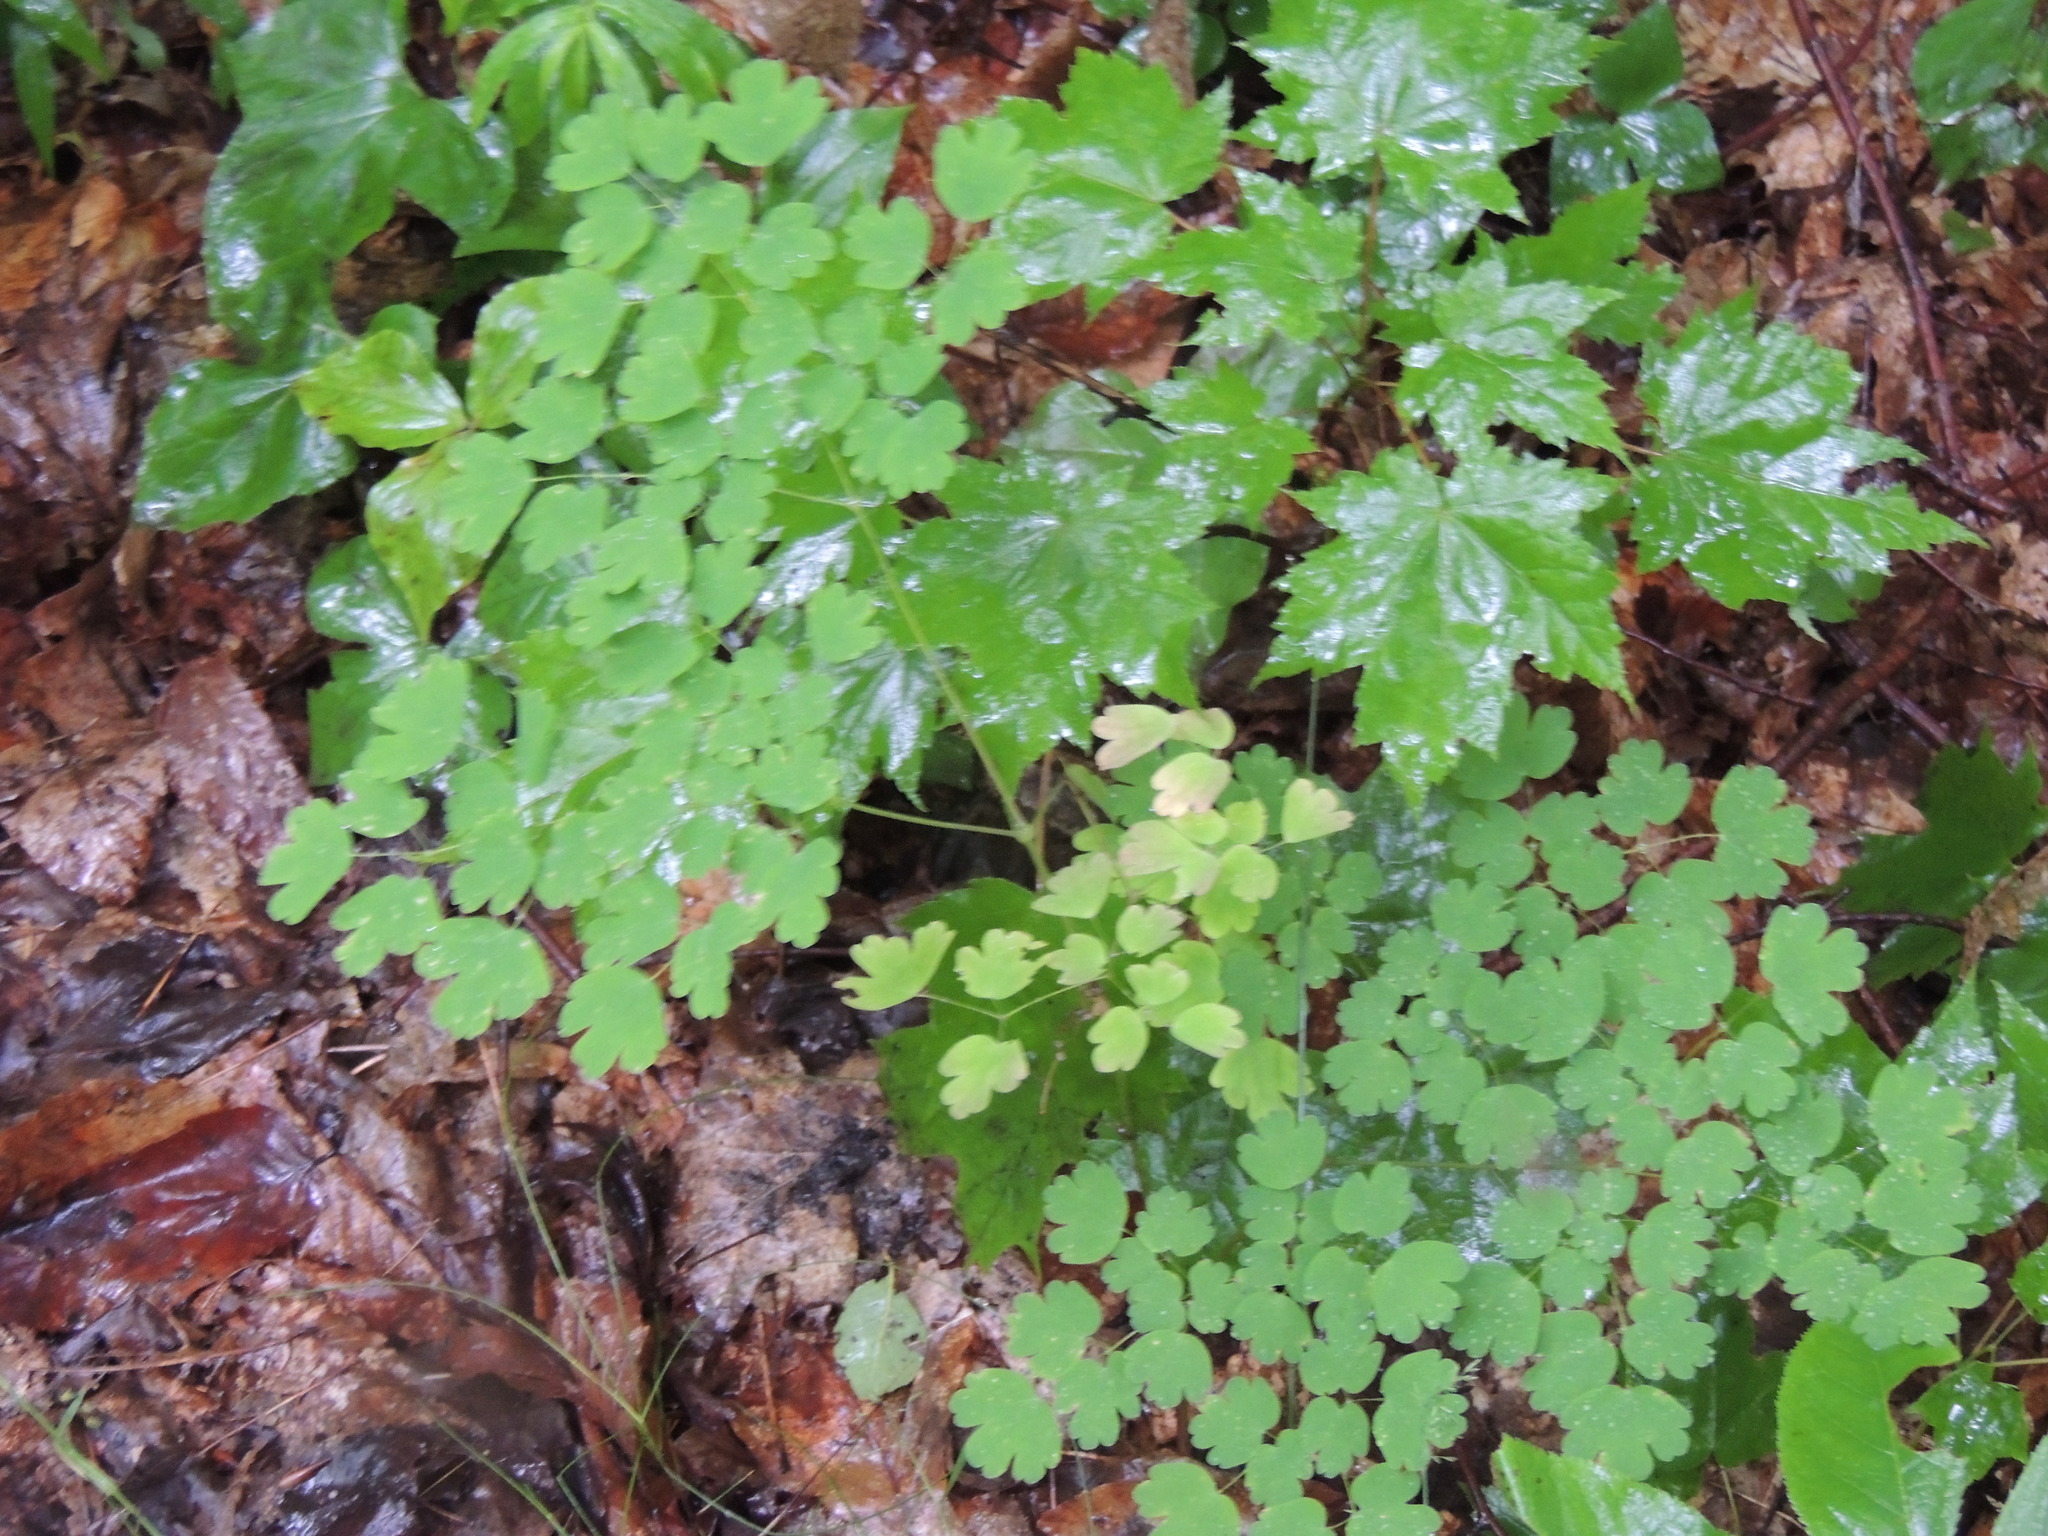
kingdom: Plantae
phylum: Tracheophyta
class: Magnoliopsida
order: Ranunculales
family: Ranunculaceae
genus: Thalictrum
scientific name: Thalictrum dioicum
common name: Early meadow-rue
